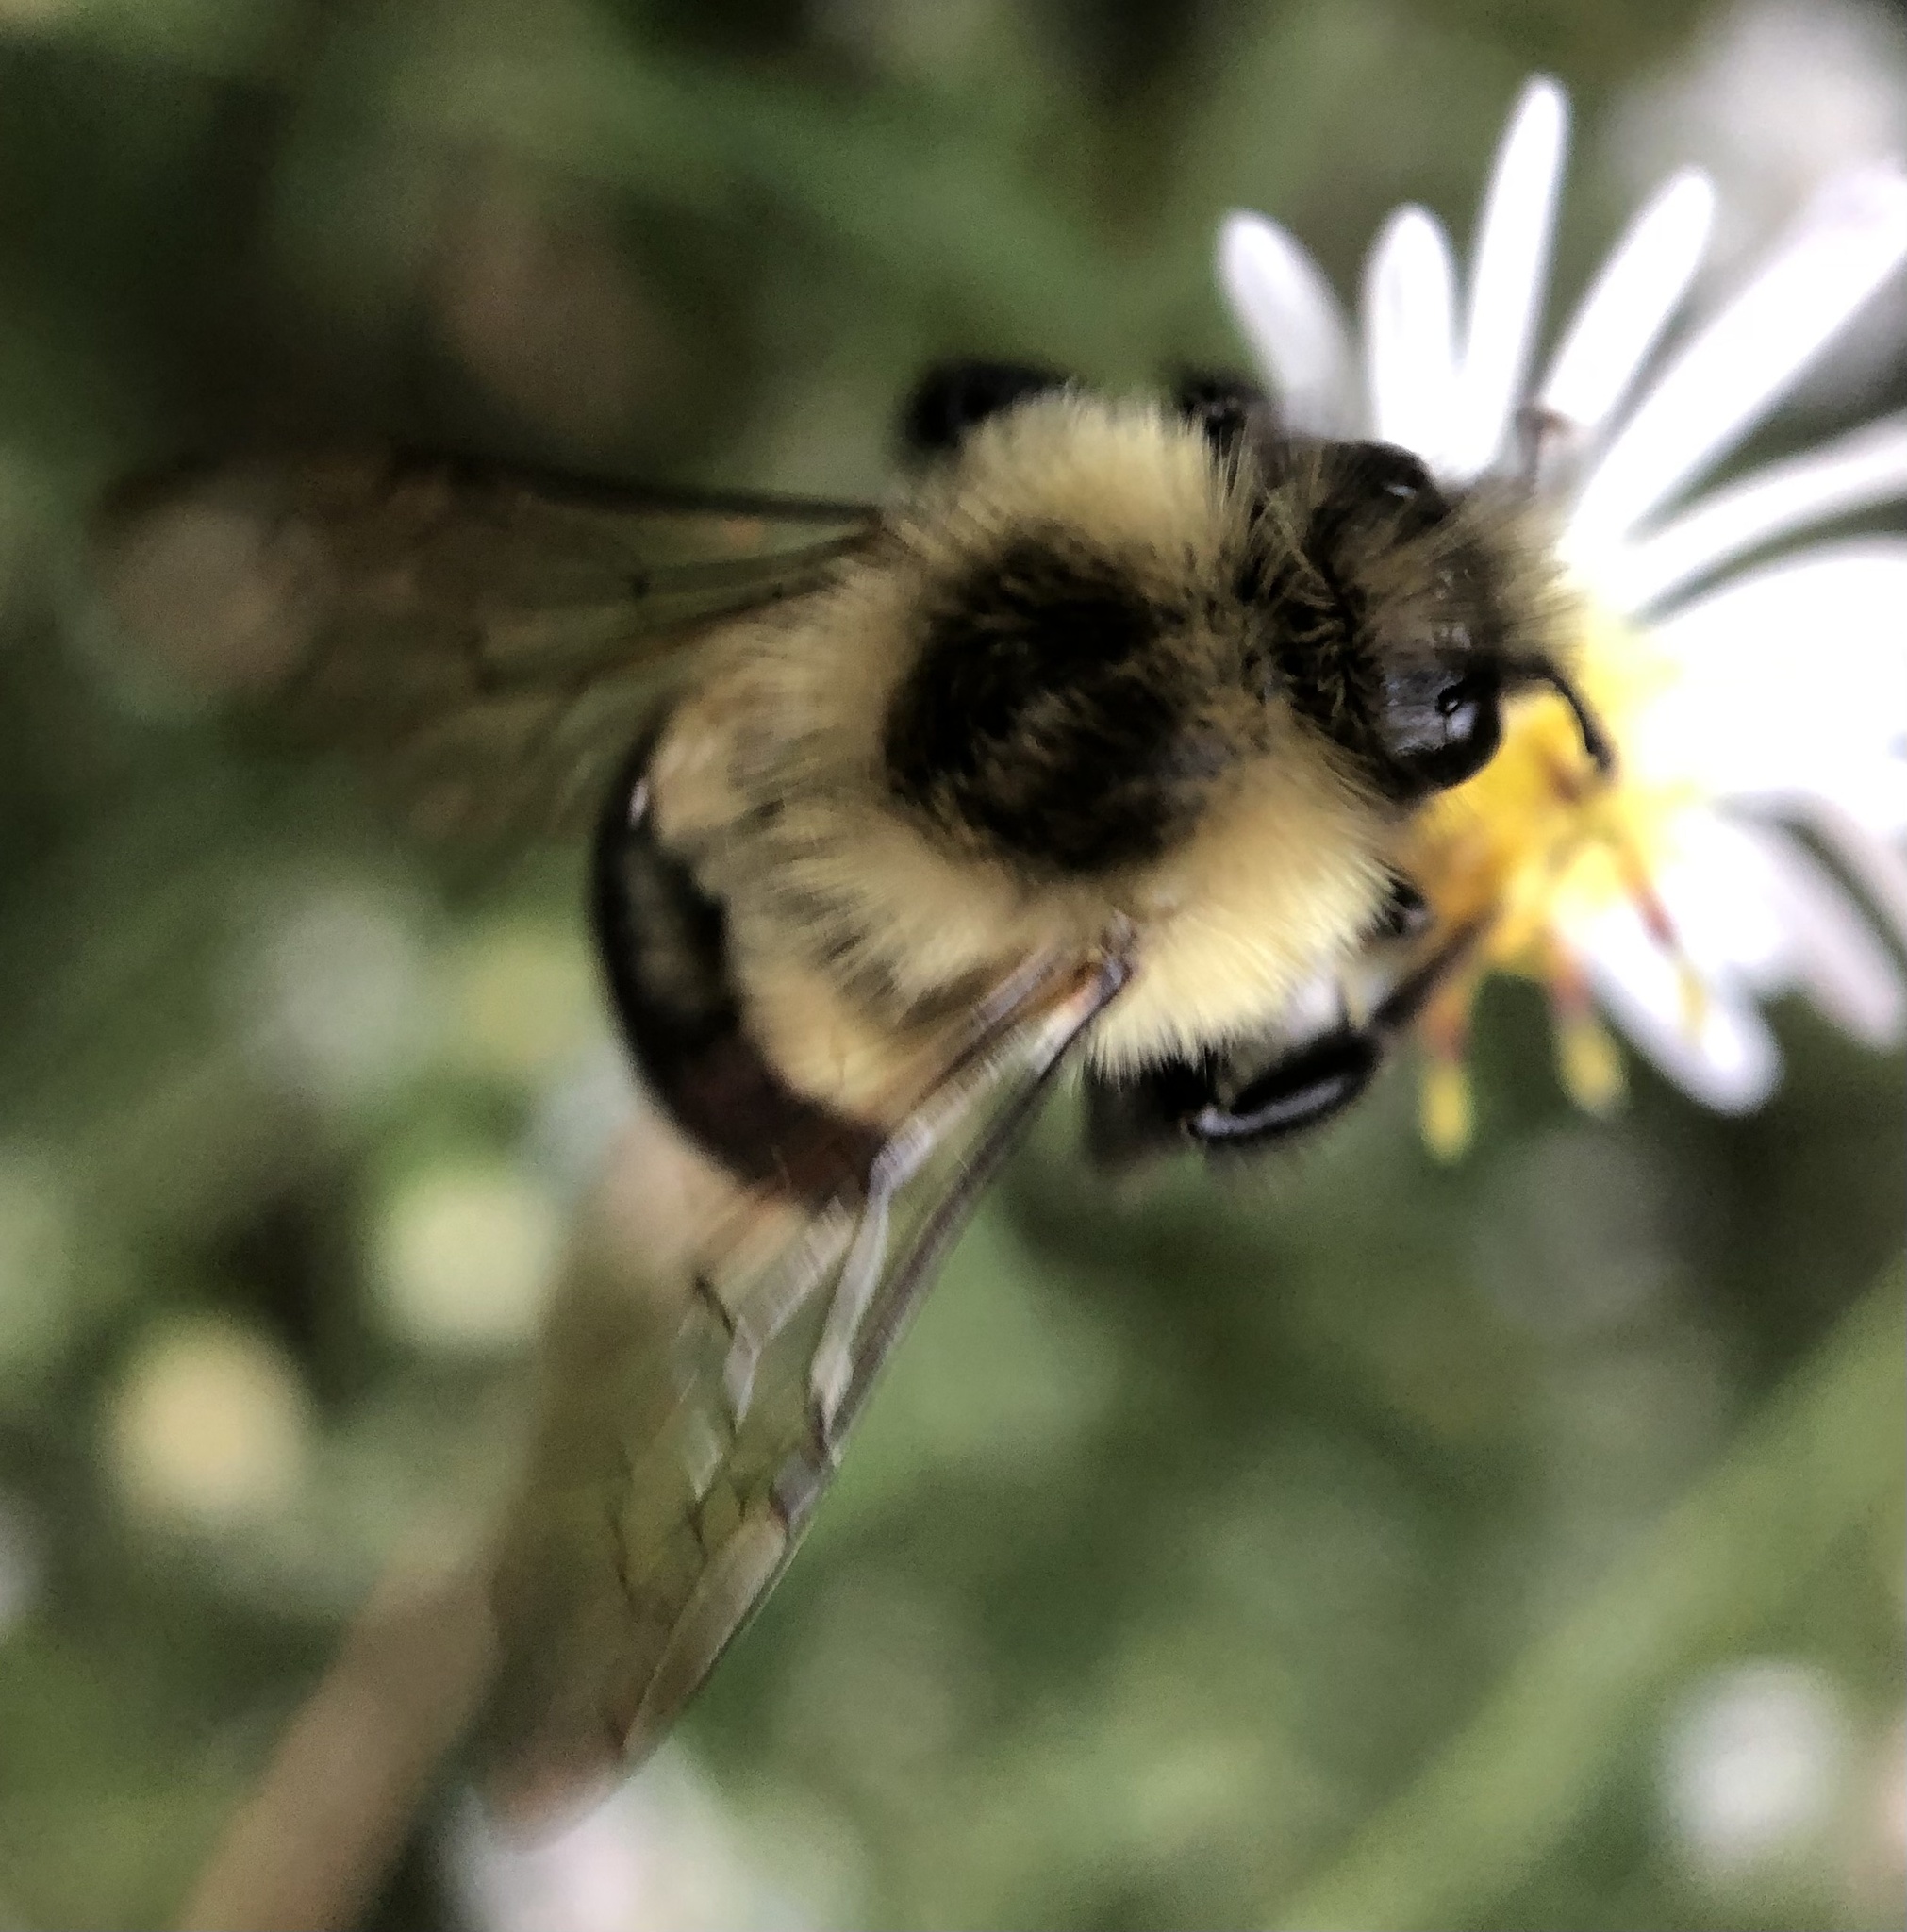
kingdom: Animalia
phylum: Arthropoda
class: Insecta
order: Hymenoptera
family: Apidae
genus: Bombus
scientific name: Bombus impatiens
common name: Common eastern bumble bee
